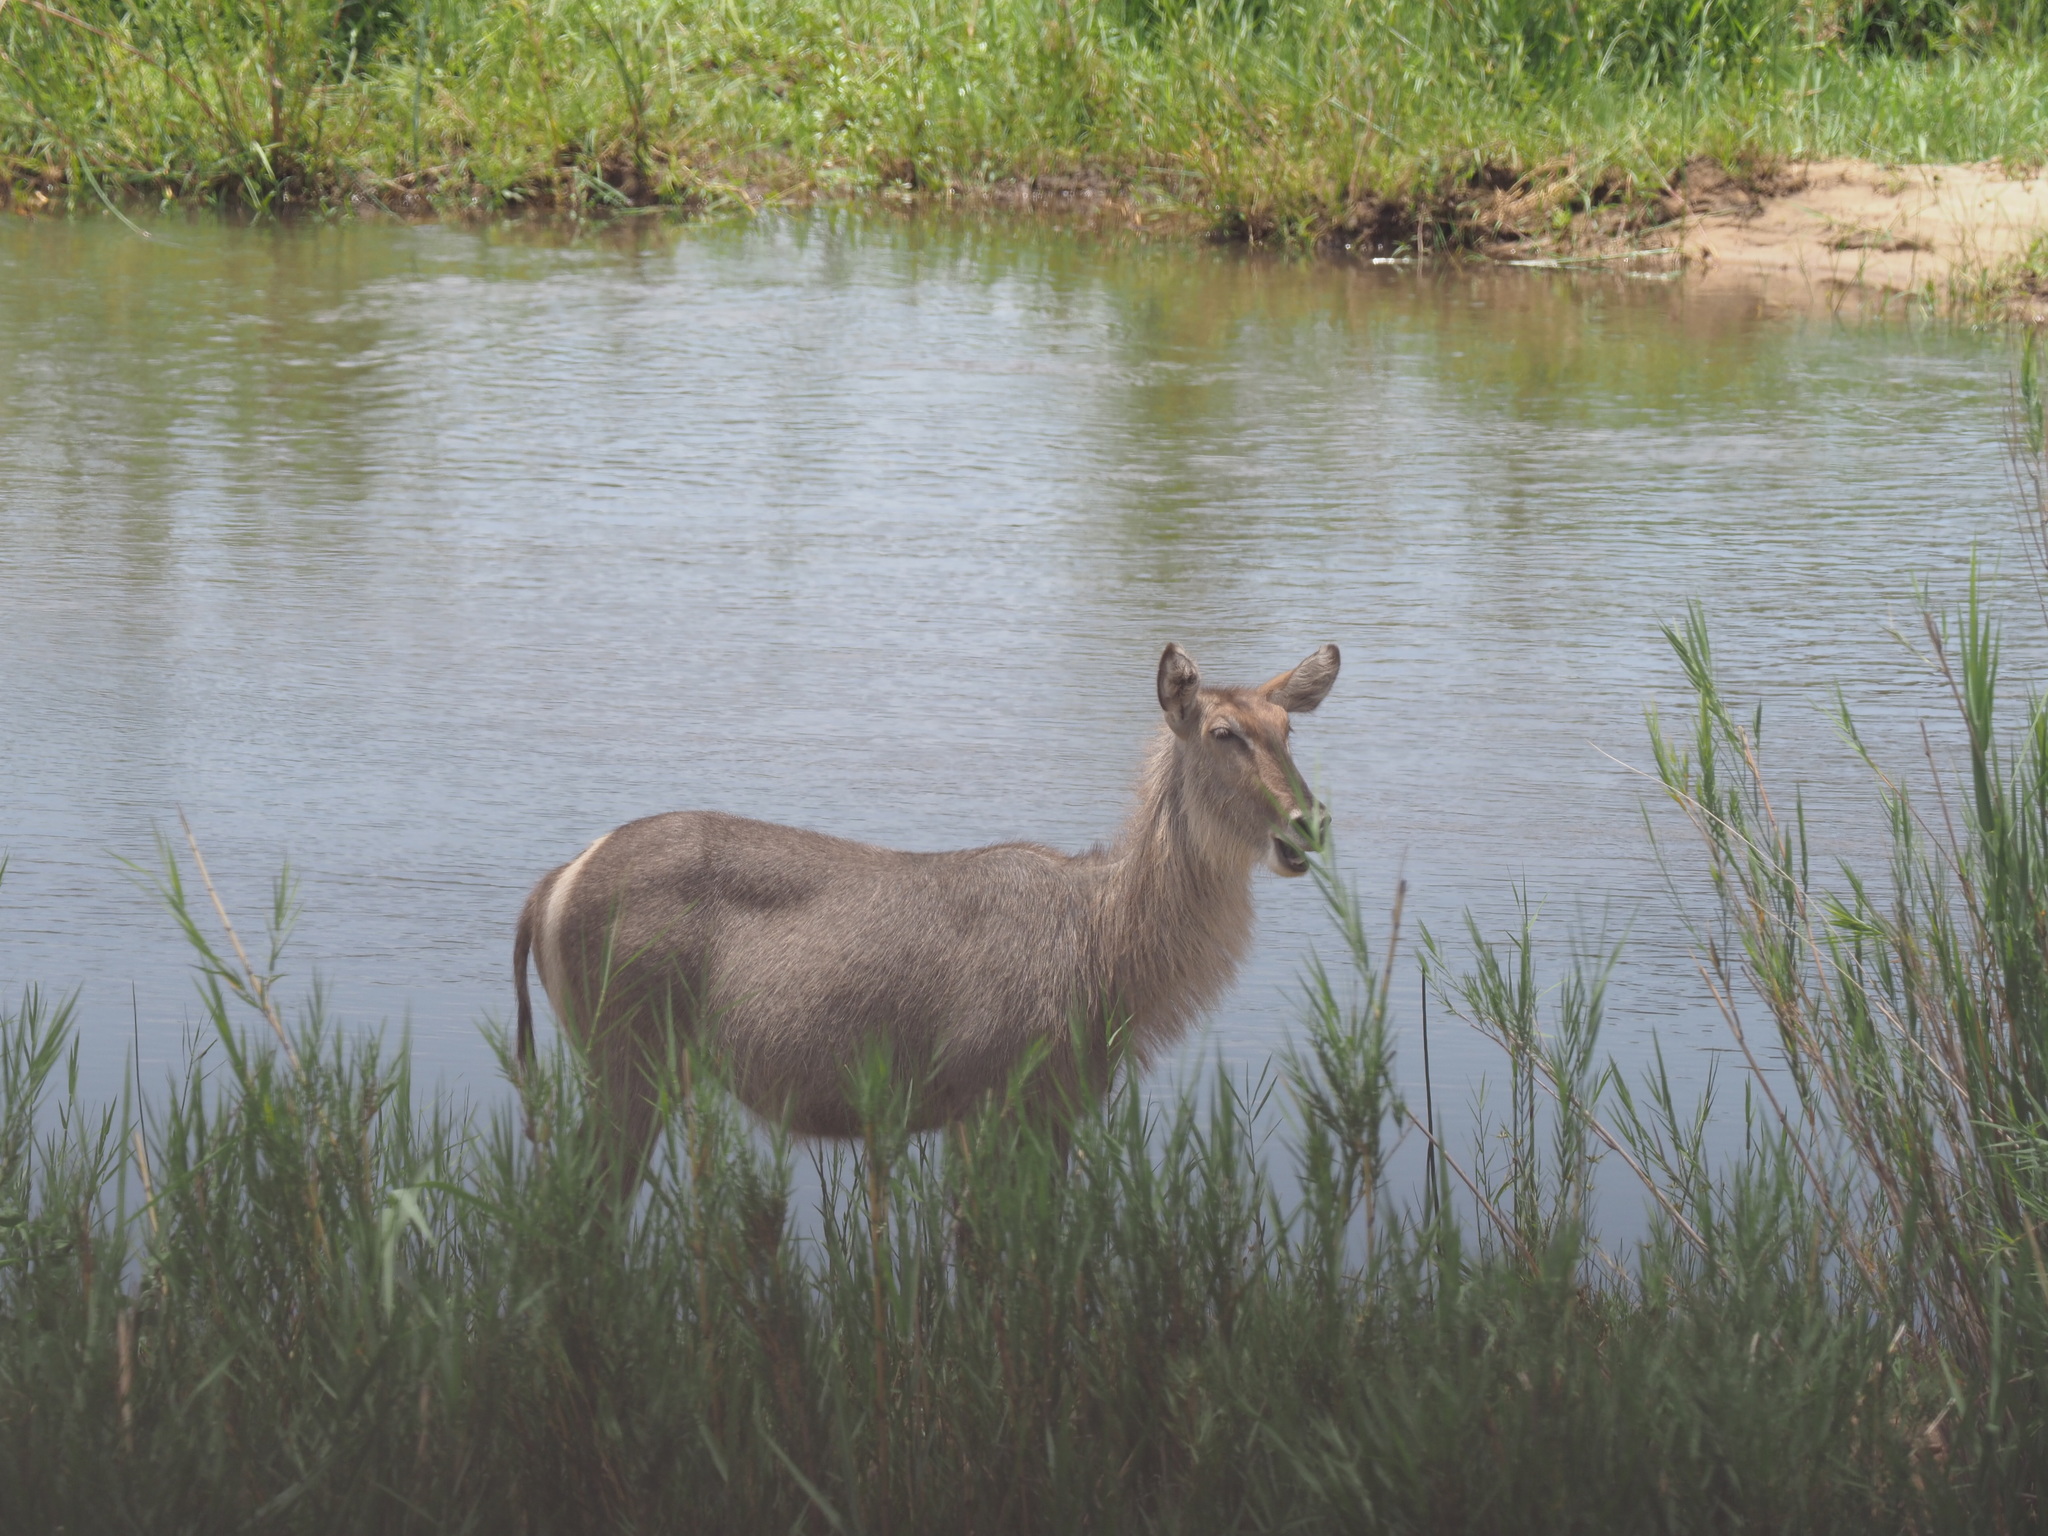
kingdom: Animalia
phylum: Chordata
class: Mammalia
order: Artiodactyla
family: Bovidae
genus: Kobus
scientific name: Kobus ellipsiprymnus
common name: Waterbuck
